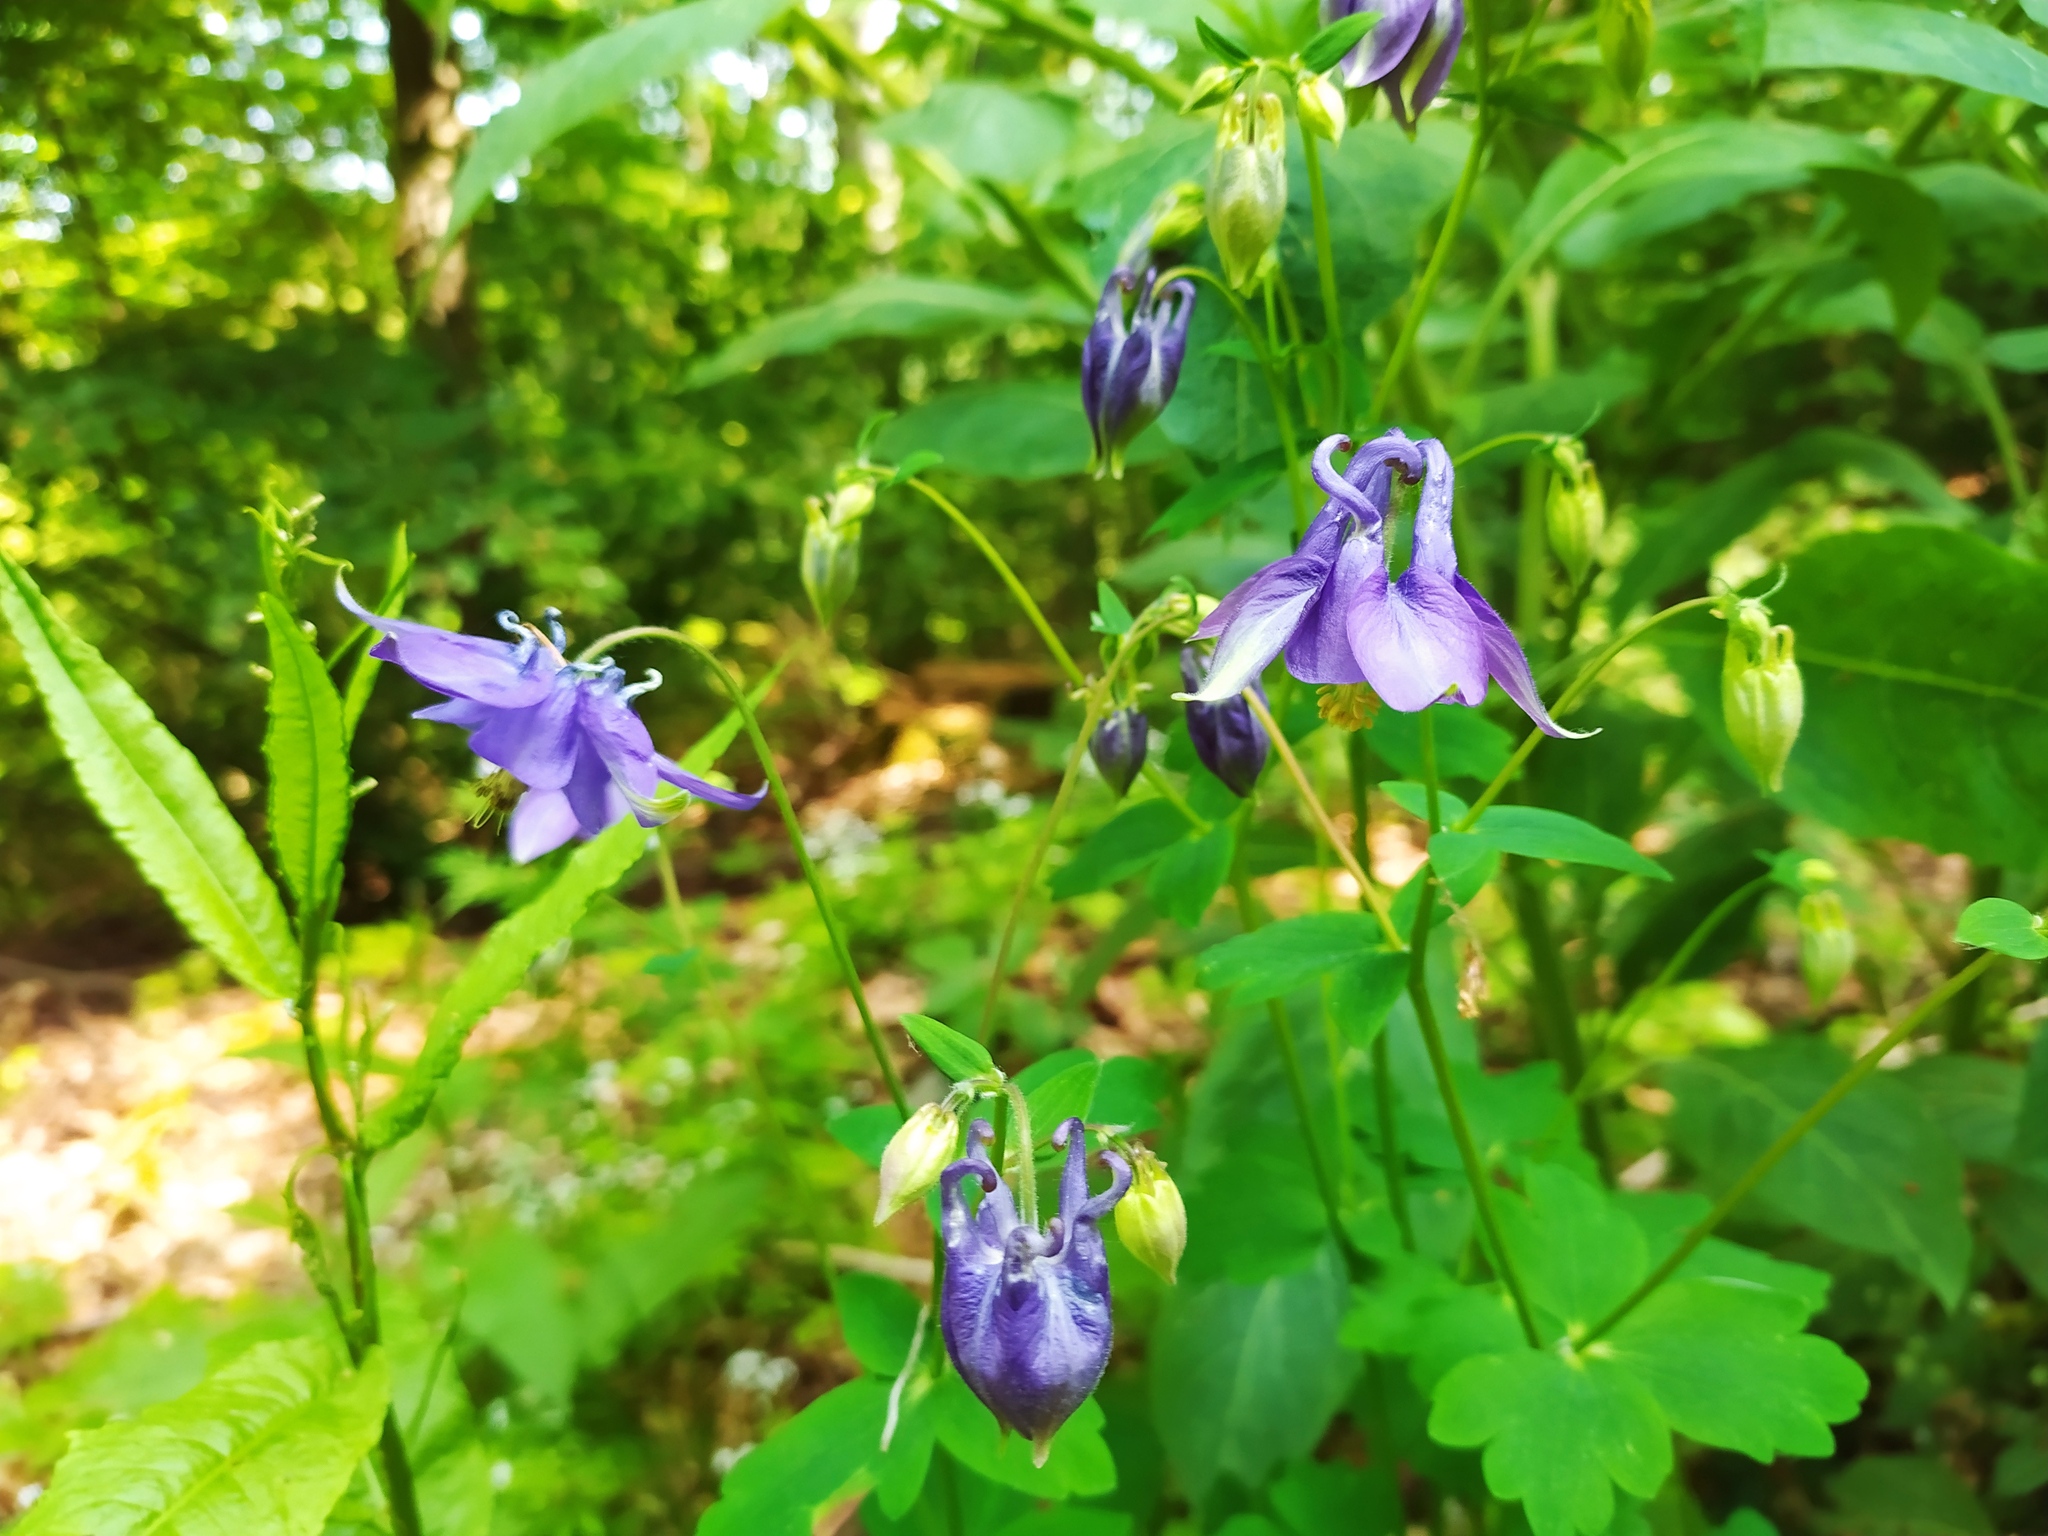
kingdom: Plantae
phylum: Tracheophyta
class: Magnoliopsida
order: Ranunculales
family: Ranunculaceae
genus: Aquilegia
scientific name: Aquilegia vulgaris
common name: Columbine
